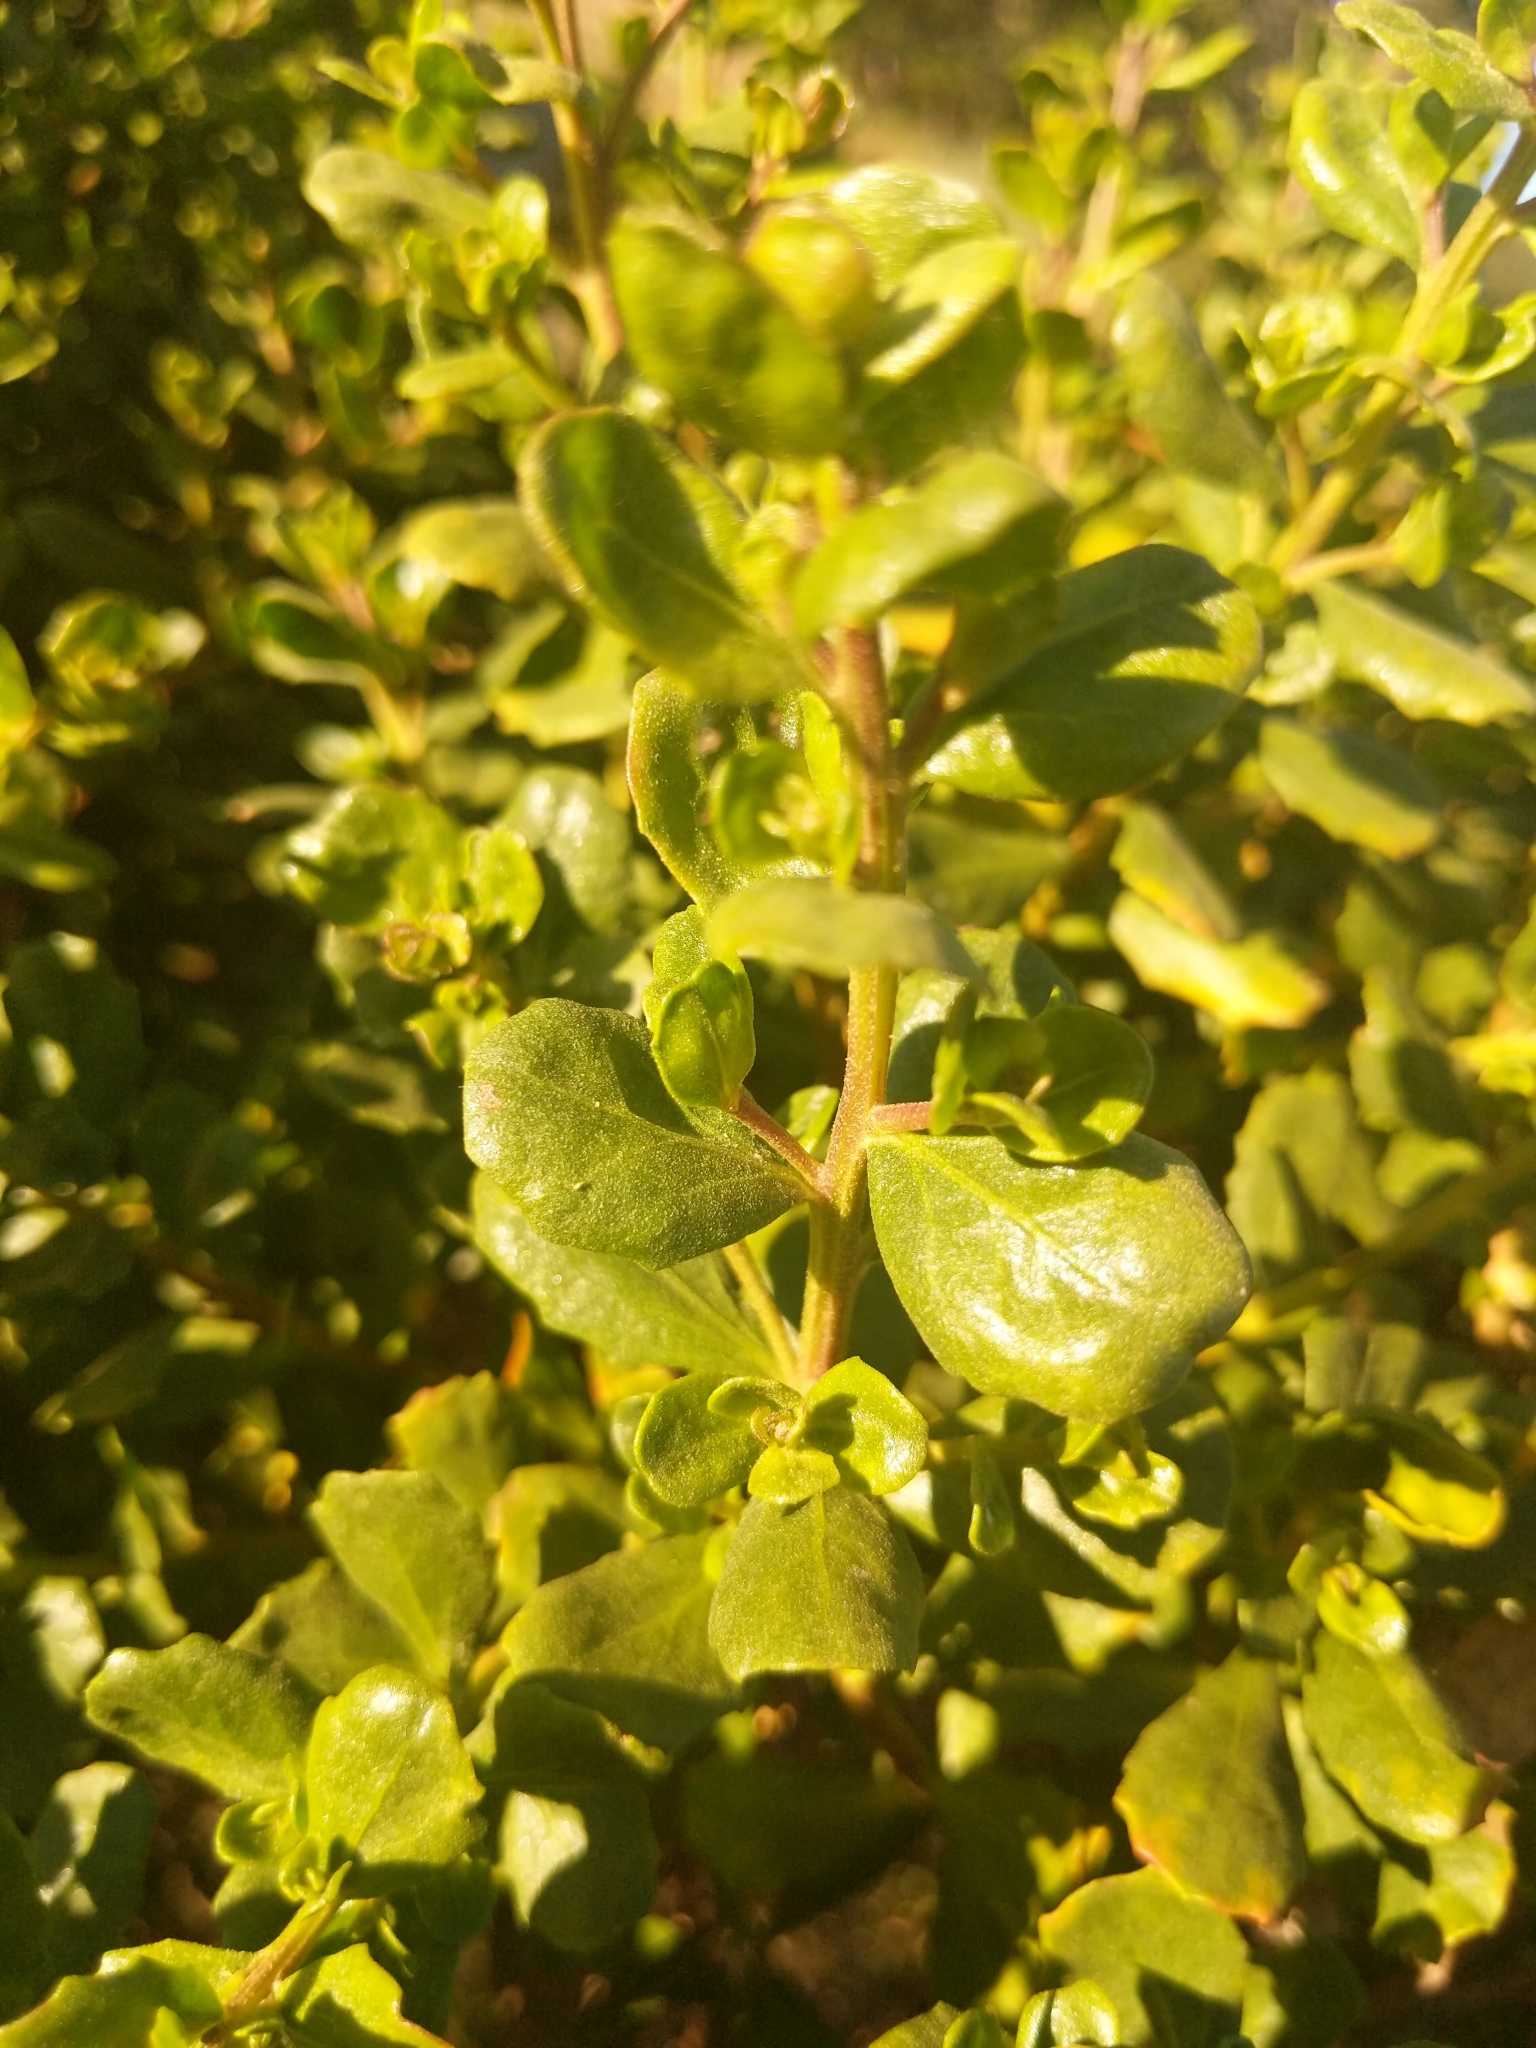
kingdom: Plantae
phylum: Tracheophyta
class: Magnoliopsida
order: Asterales
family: Asteraceae
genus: Baccharis
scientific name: Baccharis pilularis
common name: Coyotebrush
